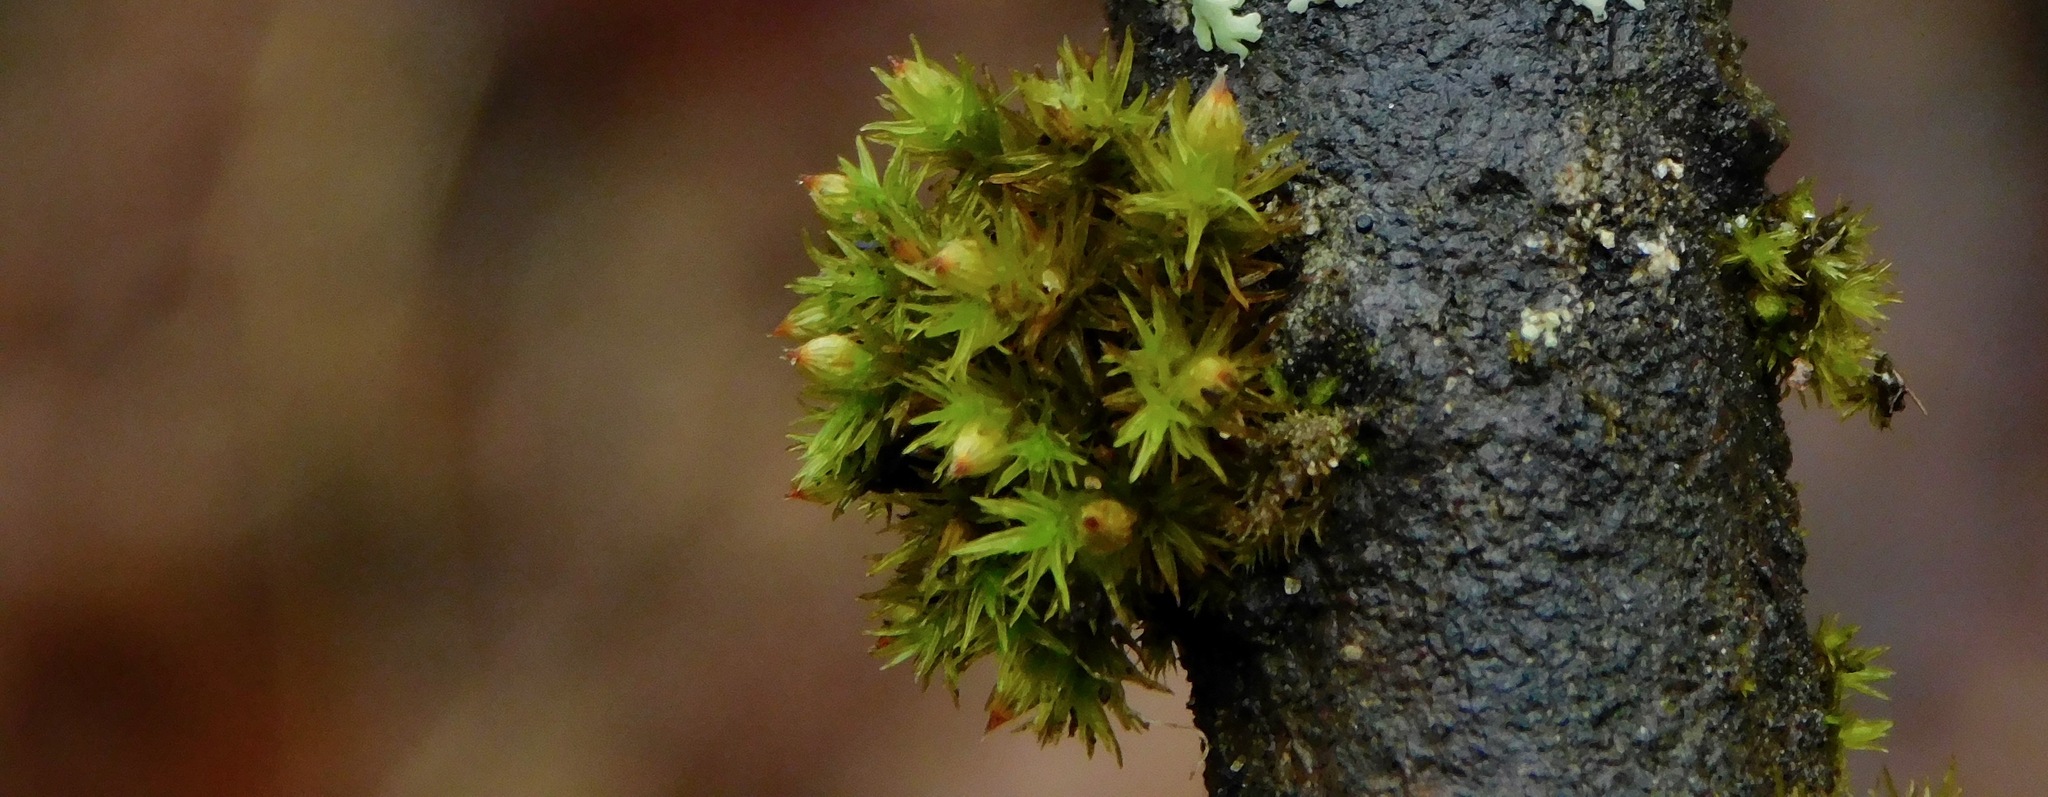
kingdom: Plantae
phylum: Bryophyta
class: Bryopsida
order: Orthotrichales
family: Orthotrichaceae
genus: Orthotrichum
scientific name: Orthotrichum stellatum
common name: Starlike bristle moss
